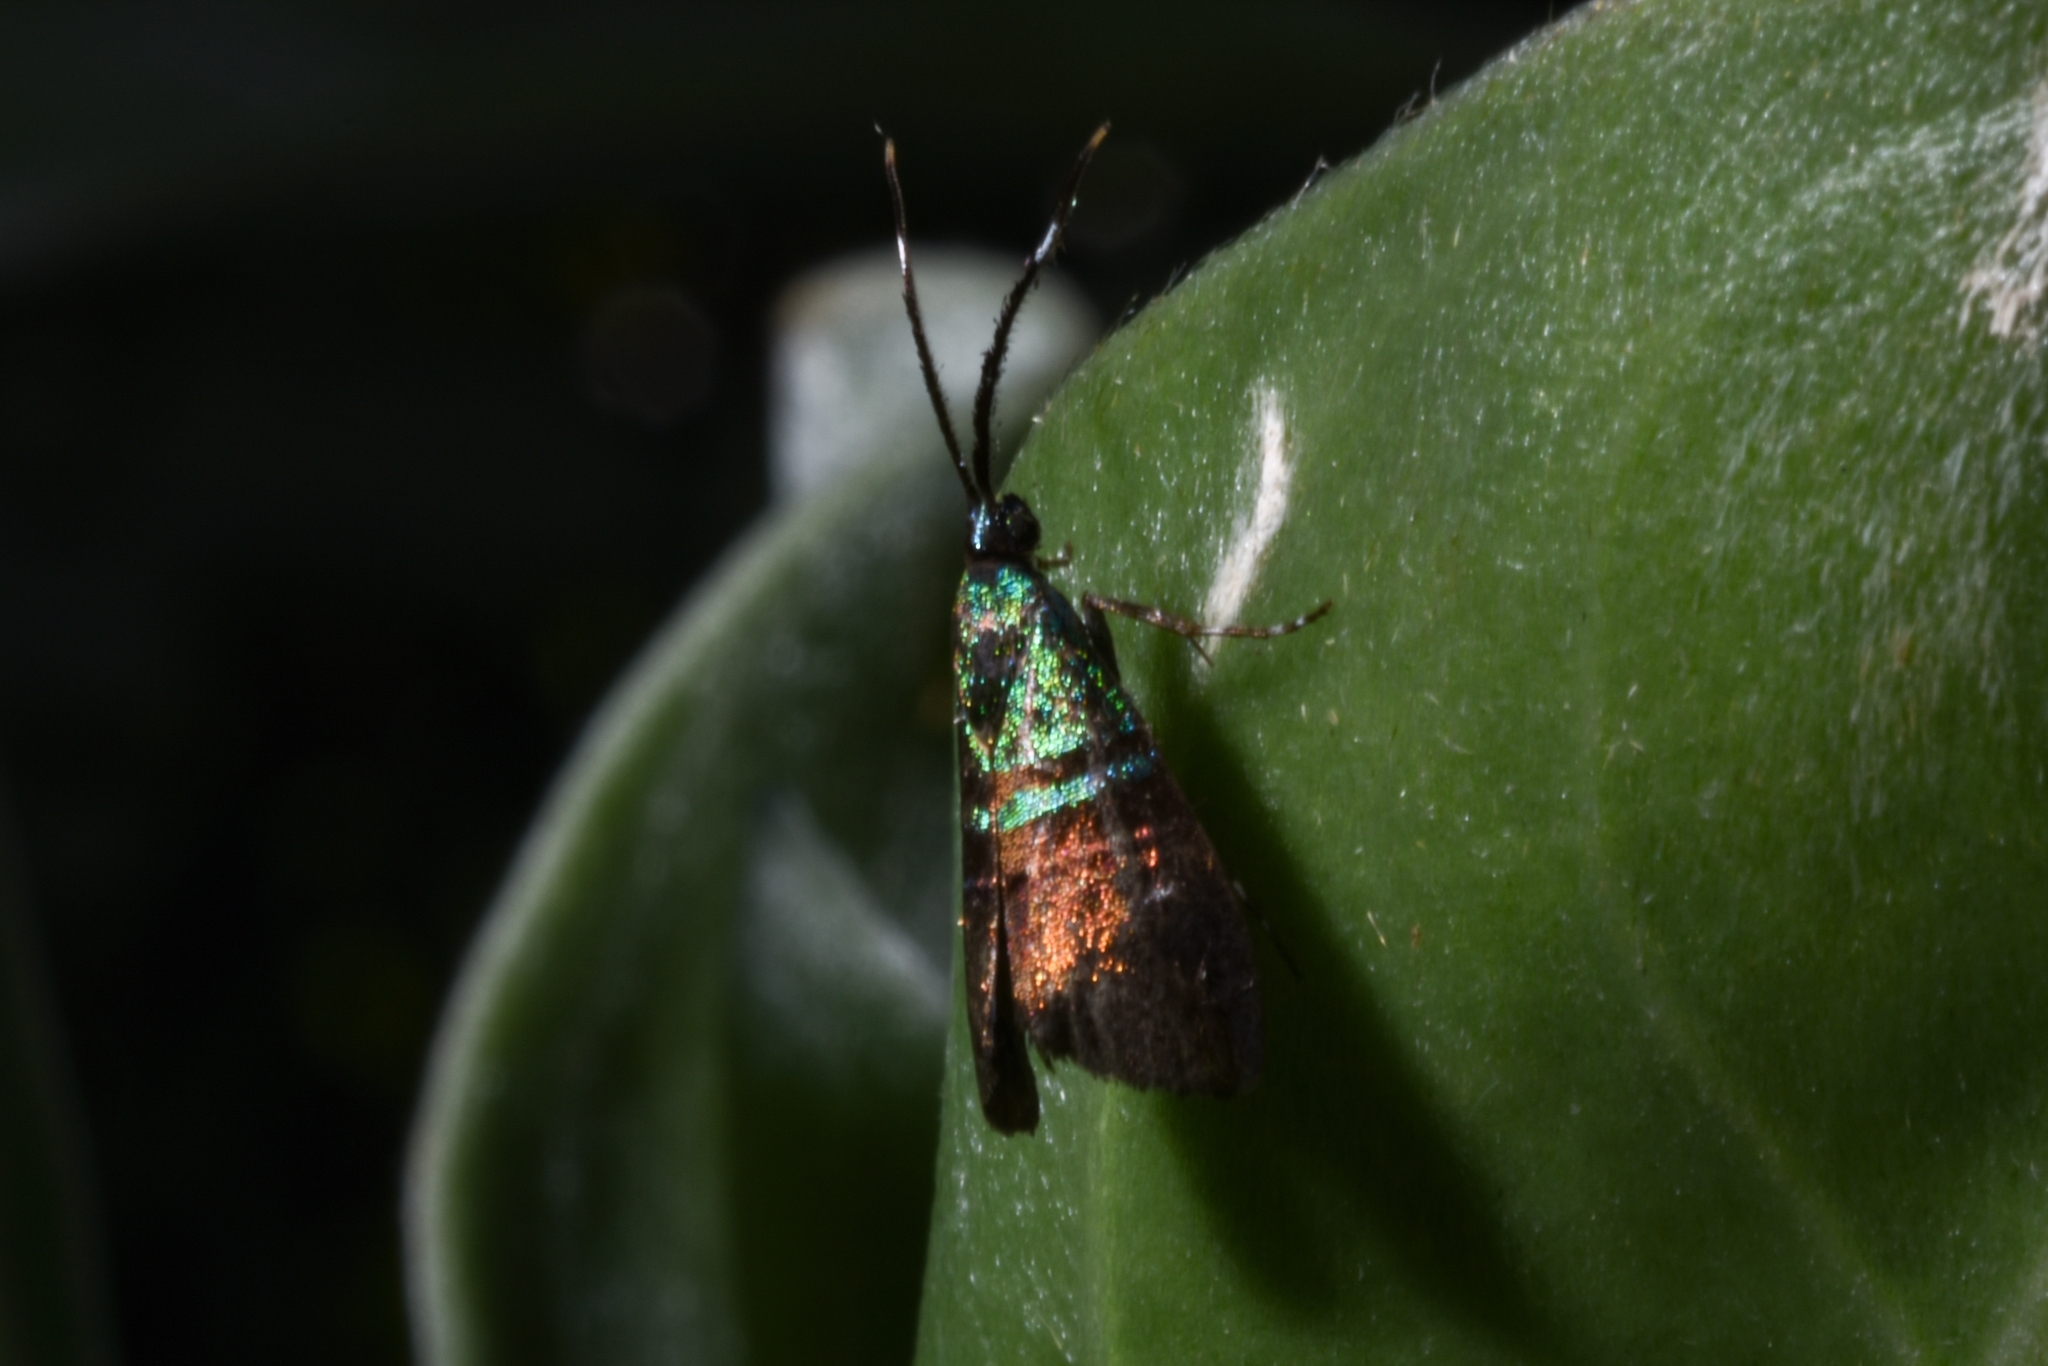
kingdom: Animalia
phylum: Arthropoda
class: Insecta
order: Lepidoptera
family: Choreutidae
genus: Saptha
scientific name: Saptha pretiosa
